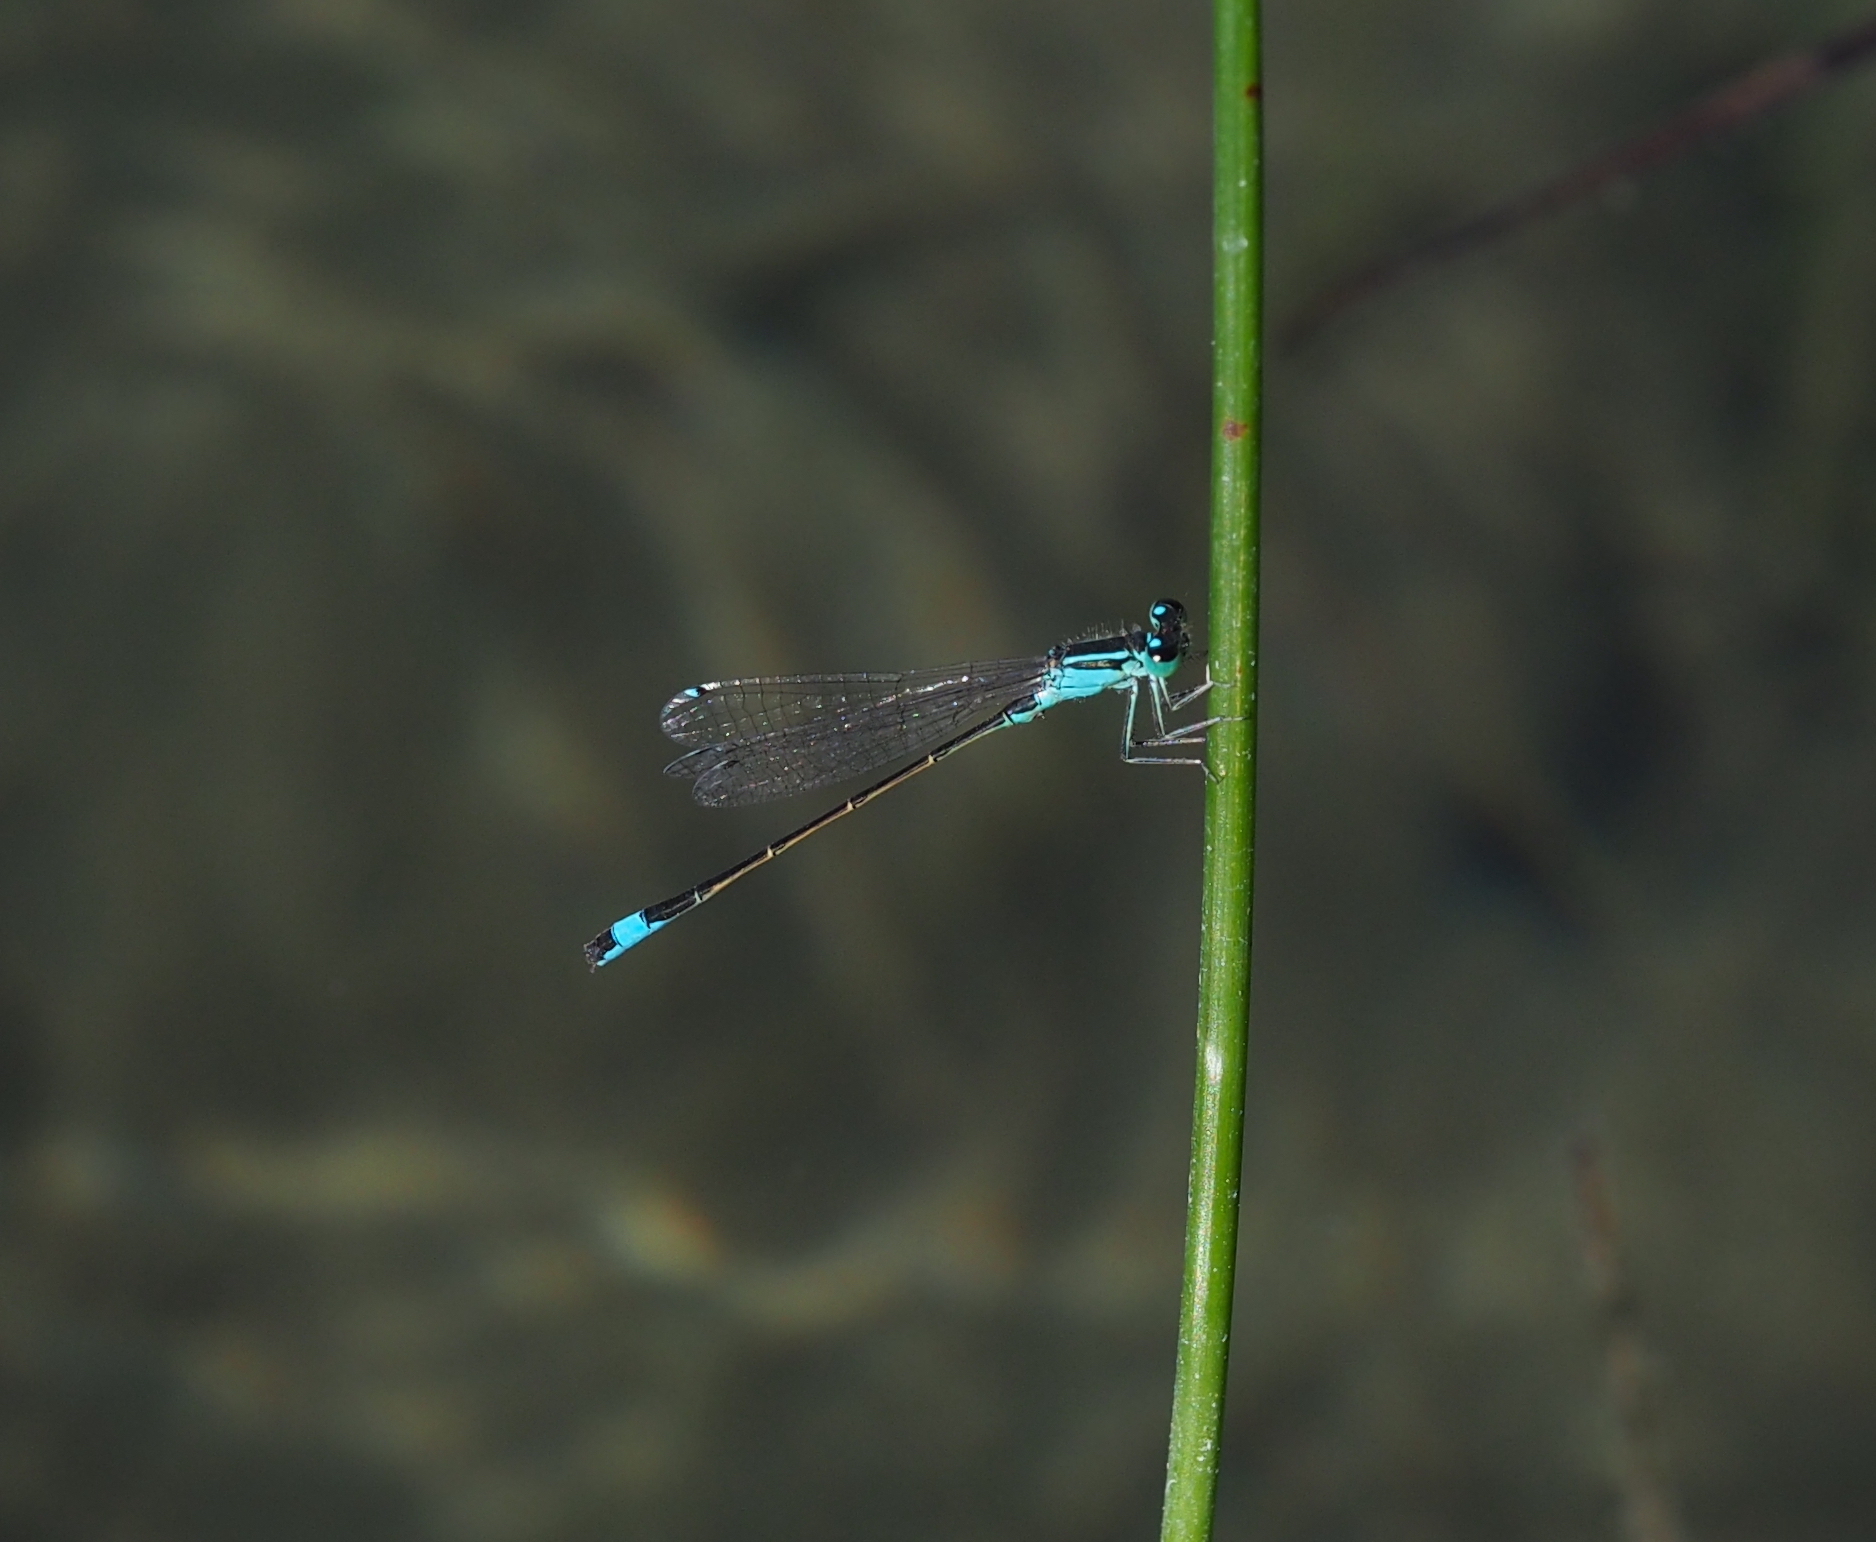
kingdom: Animalia
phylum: Arthropoda
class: Insecta
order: Odonata
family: Coenagrionidae
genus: Ischnura
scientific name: Ischnura elegans
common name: Blue-tailed damselfly
